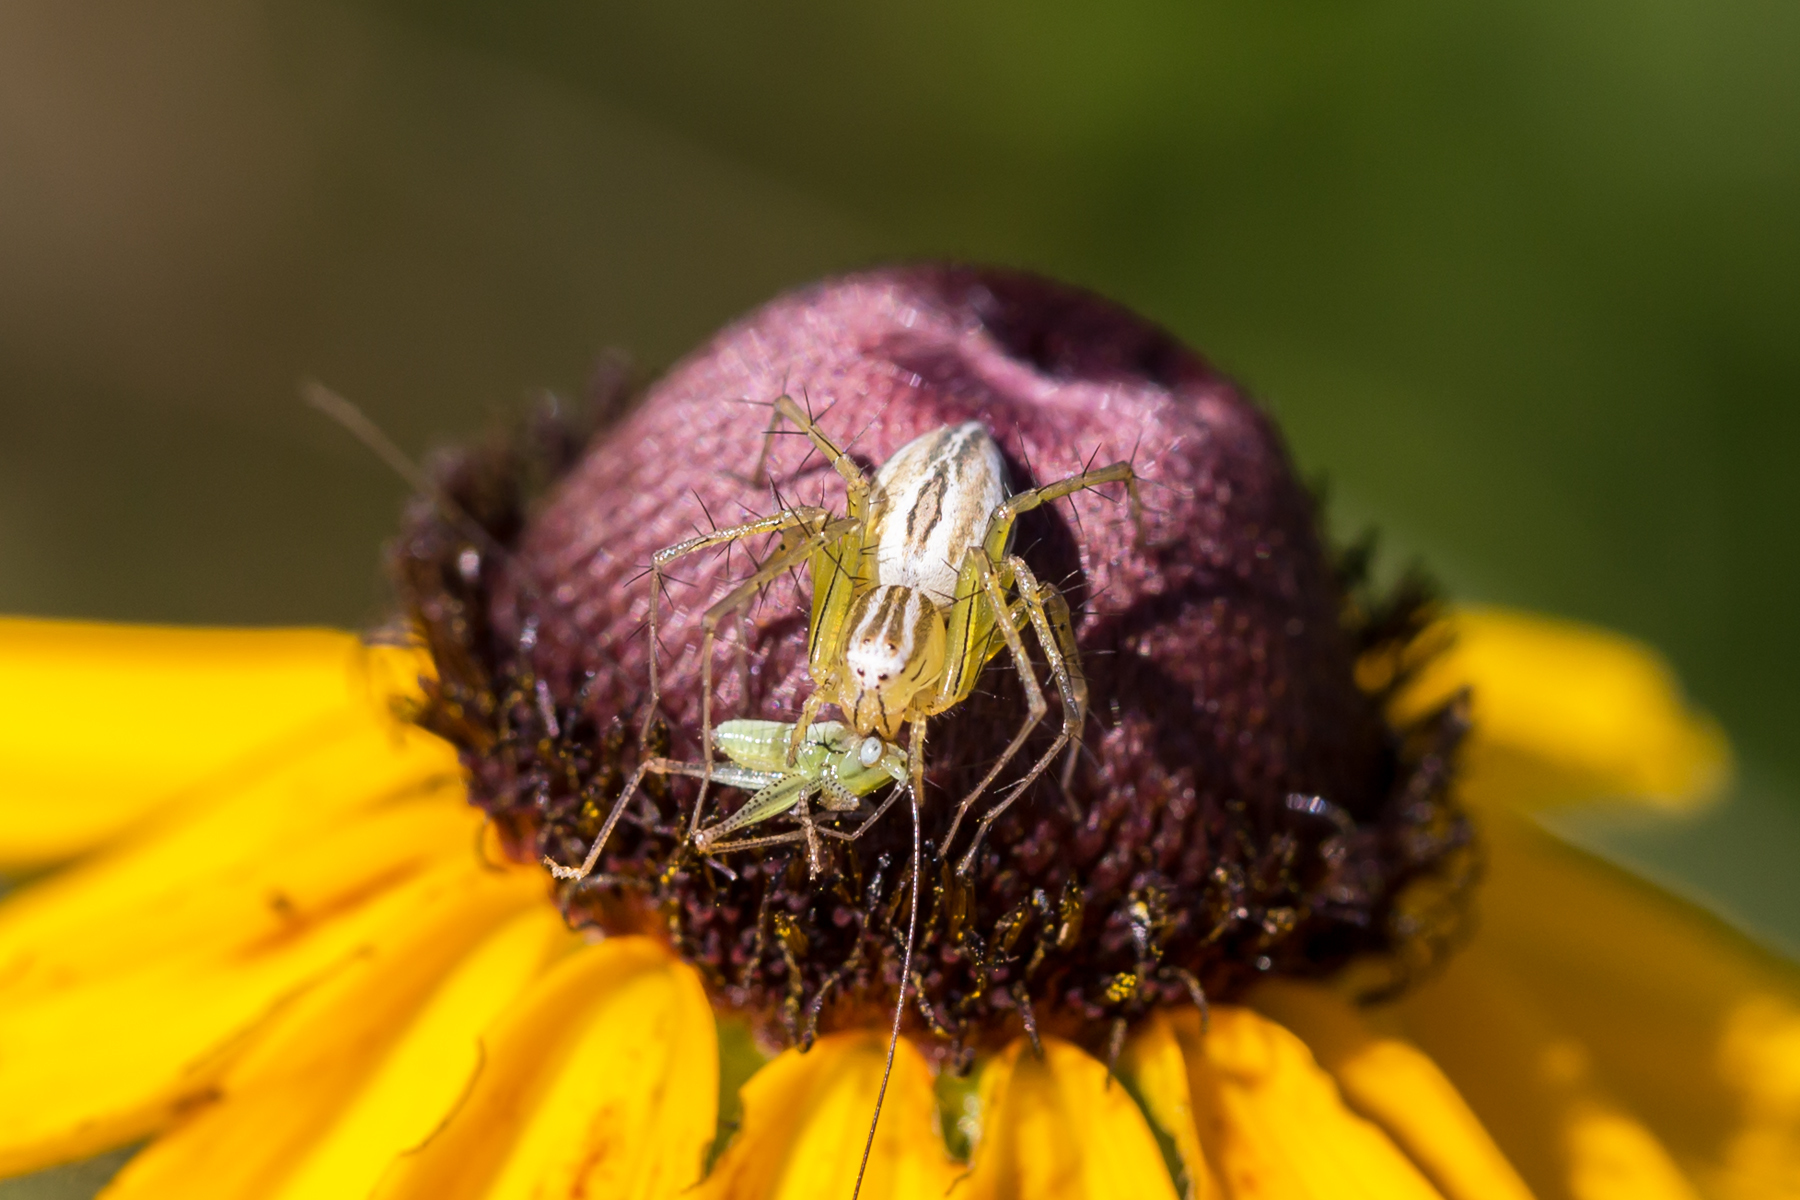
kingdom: Animalia
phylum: Arthropoda
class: Arachnida
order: Araneae
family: Oxyopidae
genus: Oxyopes
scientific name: Oxyopes salticus
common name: Lynx spiders
